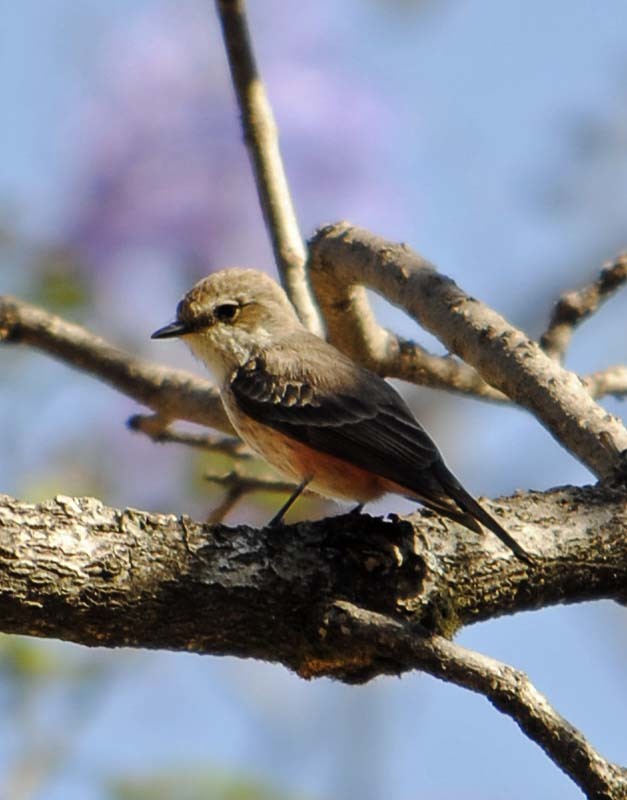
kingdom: Animalia
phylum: Chordata
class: Aves
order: Passeriformes
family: Tyrannidae
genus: Pyrocephalus
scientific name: Pyrocephalus rubinus
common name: Vermilion flycatcher
